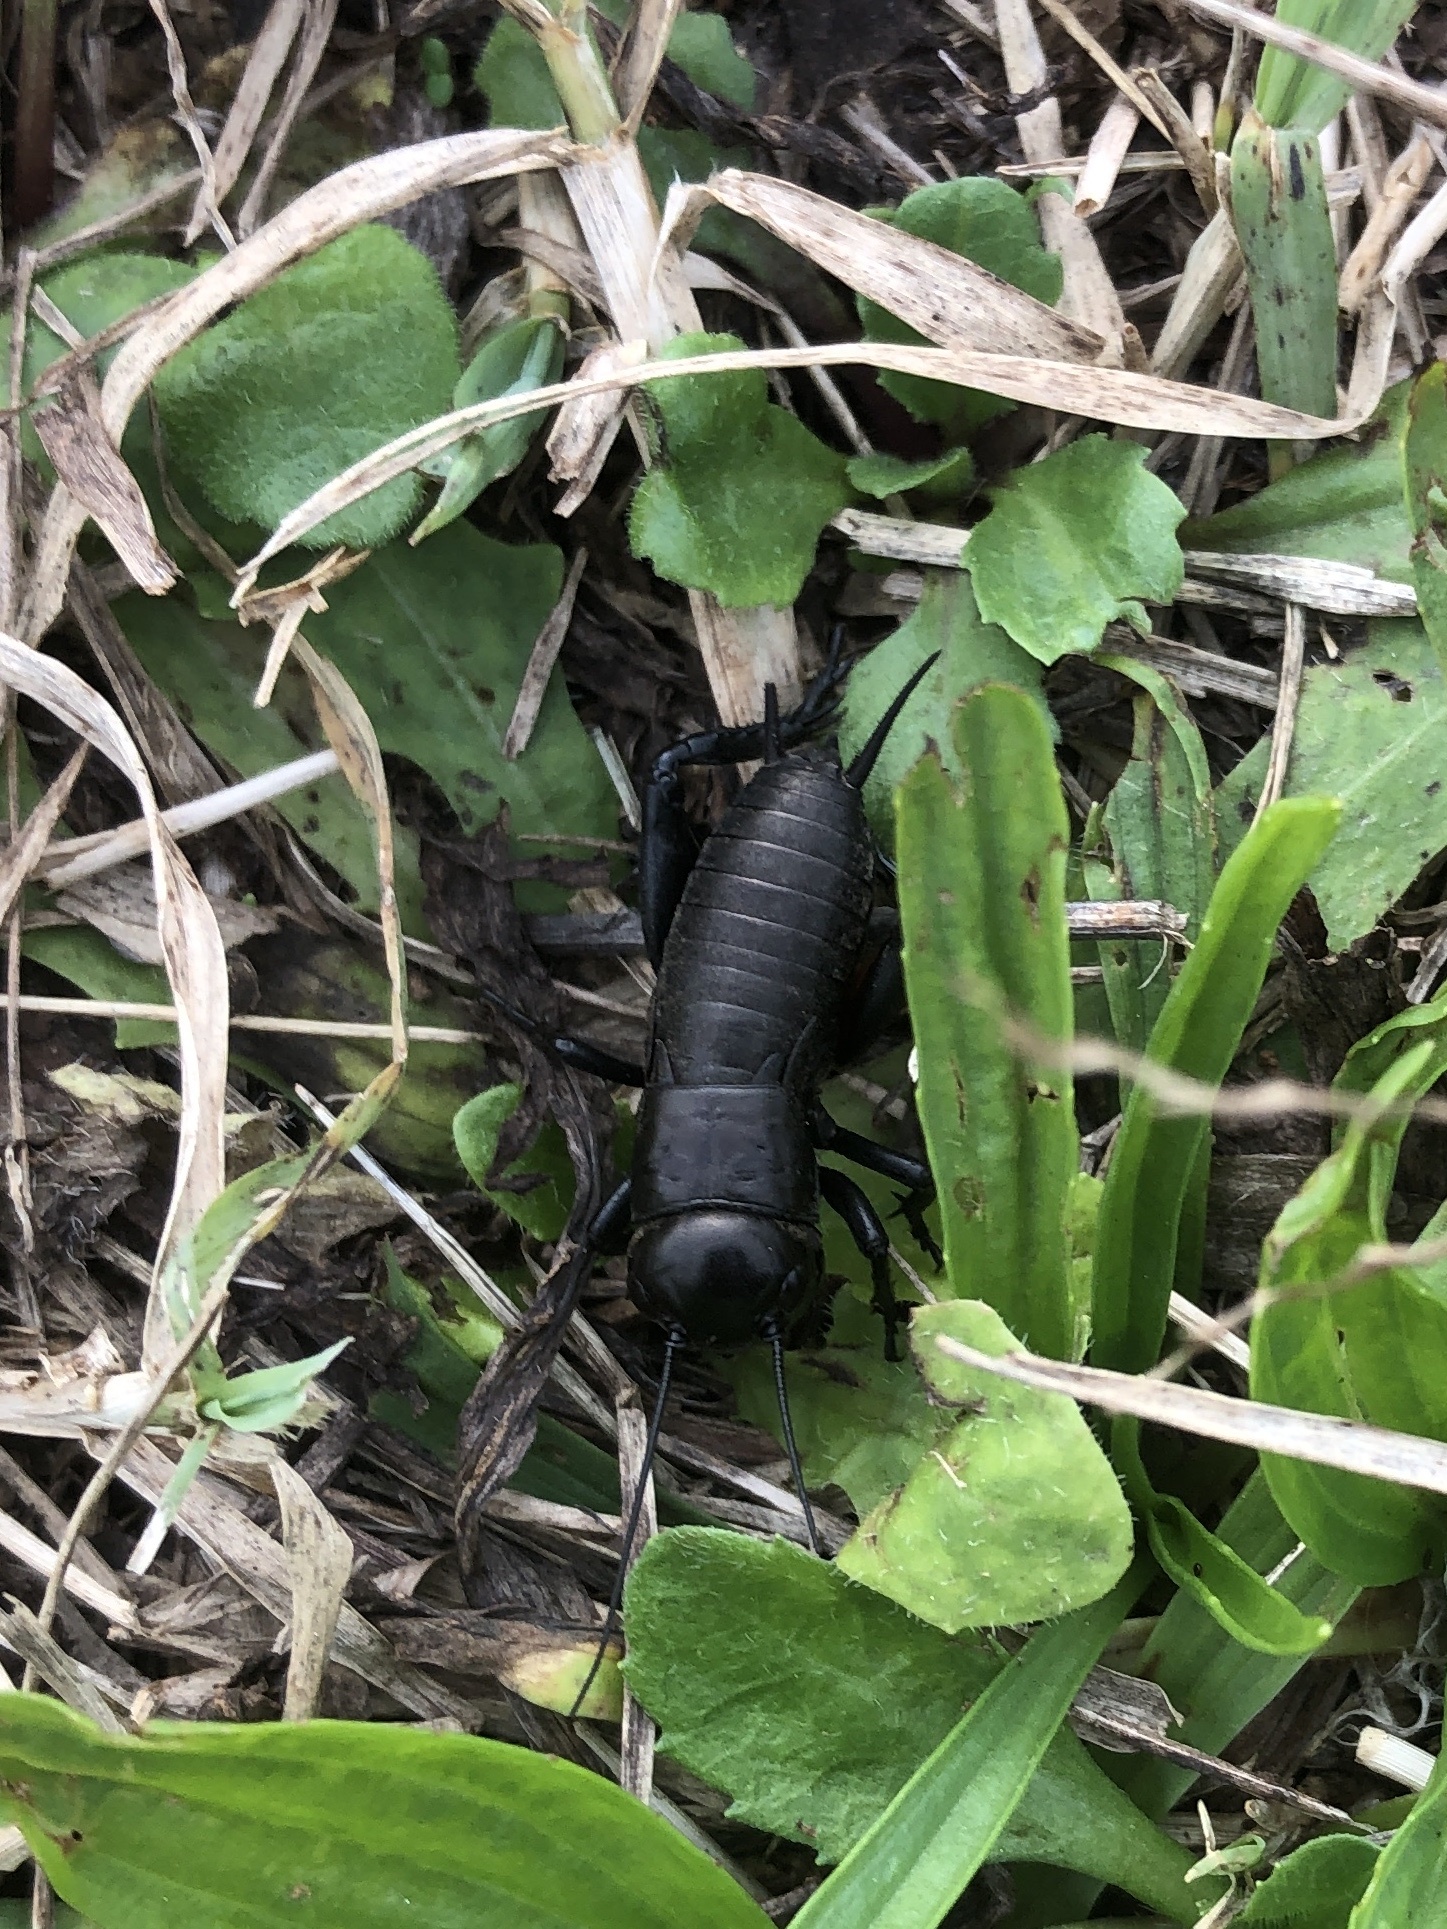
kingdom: Animalia
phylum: Arthropoda
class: Insecta
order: Orthoptera
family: Gryllidae
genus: Gryllus
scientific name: Gryllus campestris
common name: Field cricket
